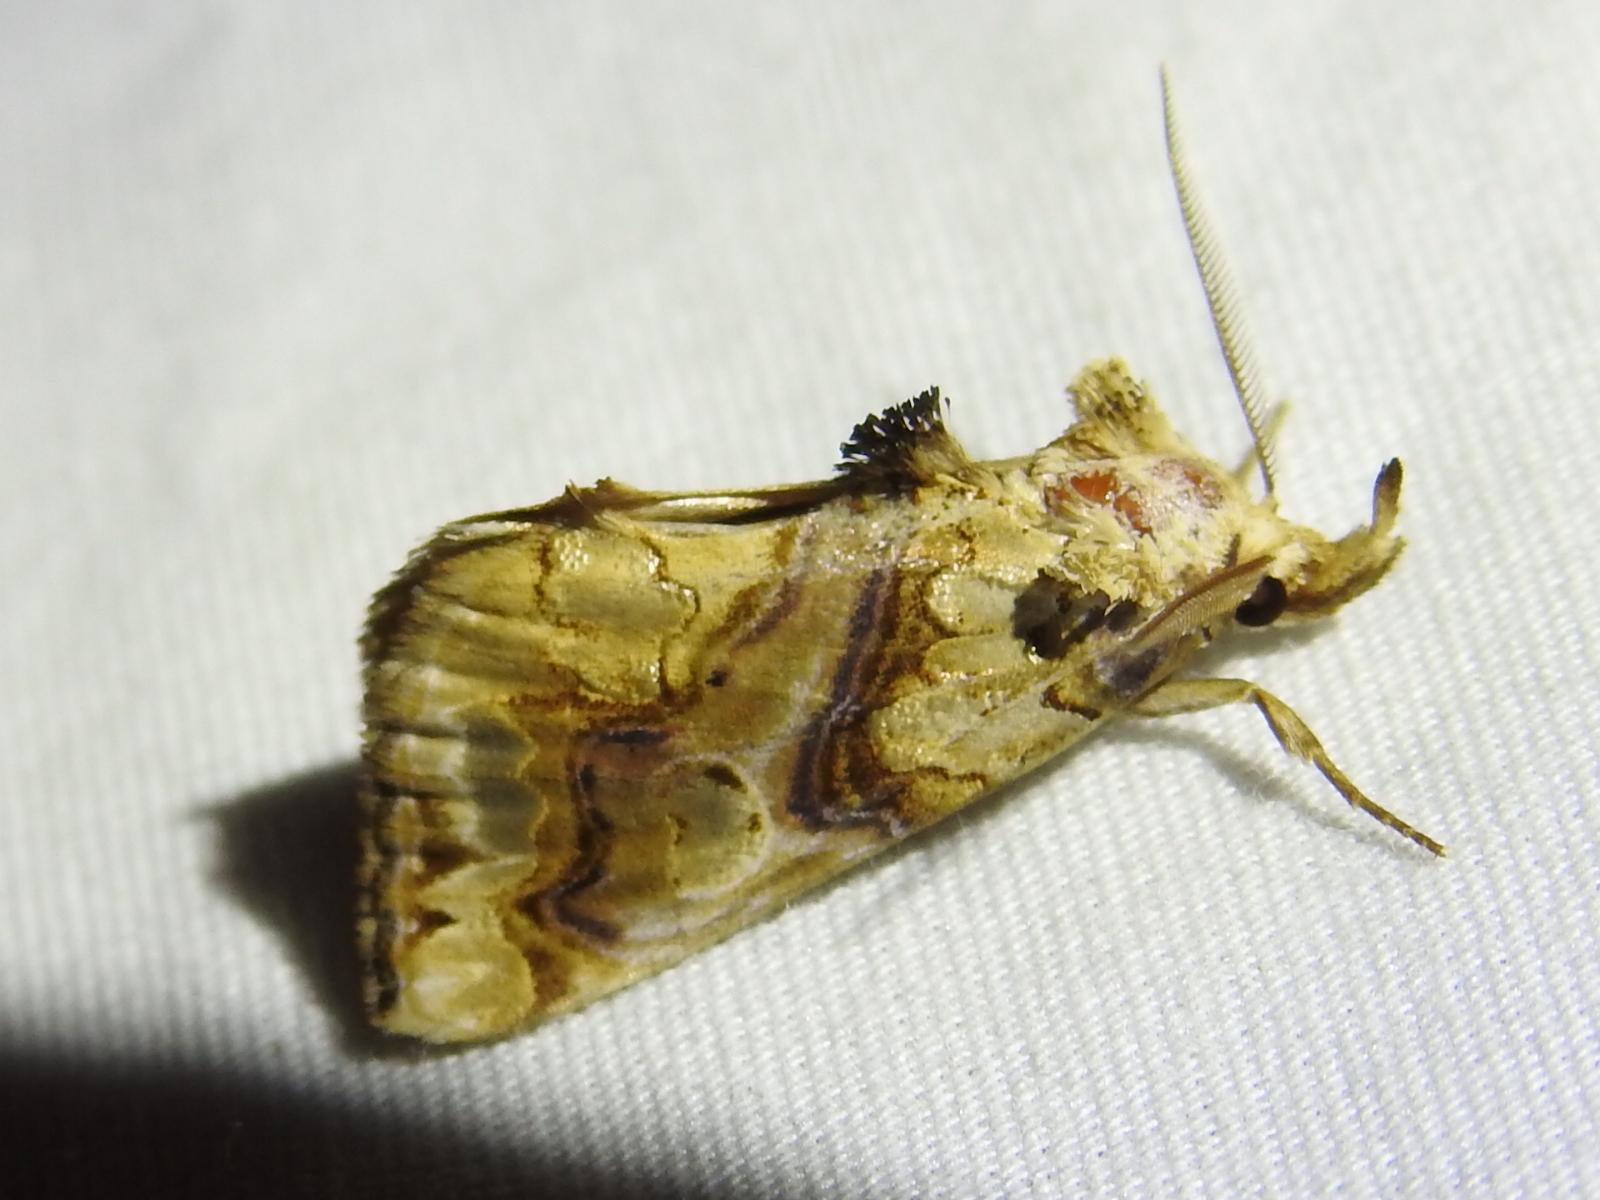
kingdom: Animalia
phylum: Arthropoda
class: Insecta
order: Lepidoptera
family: Erebidae
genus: Plusiodonta
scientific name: Plusiodonta compressipalpis
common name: Moonseed moth
